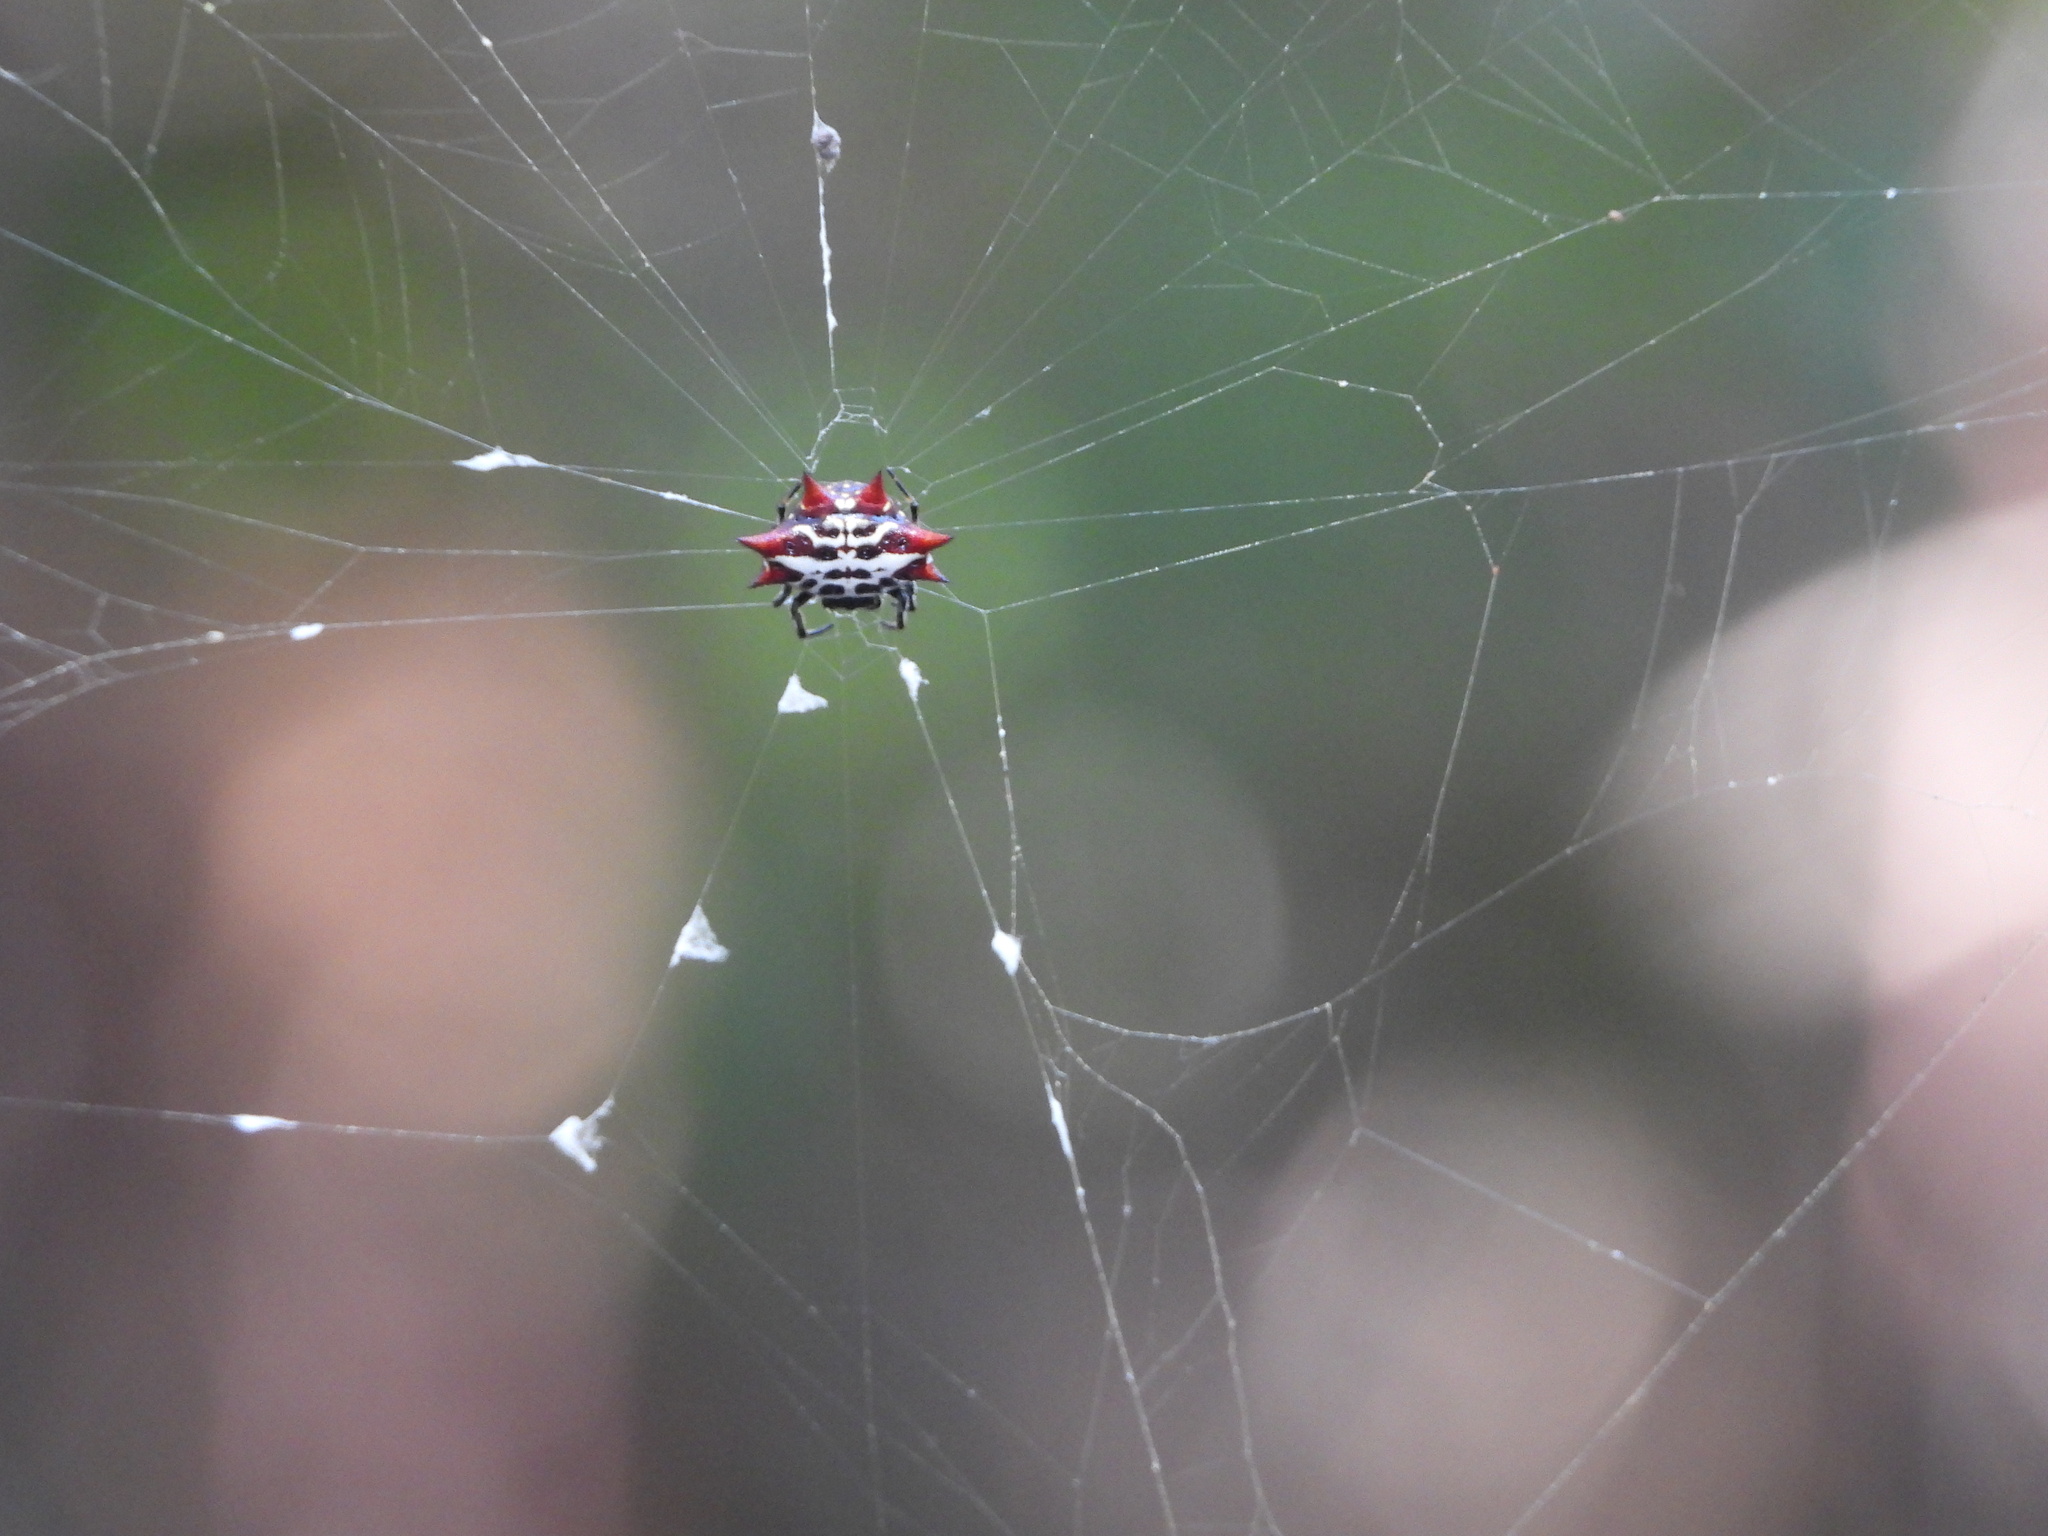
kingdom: Animalia
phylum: Arthropoda
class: Arachnida
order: Araneae
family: Araneidae
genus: Gasteracantha
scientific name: Gasteracantha cancriformis
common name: Orb weavers
